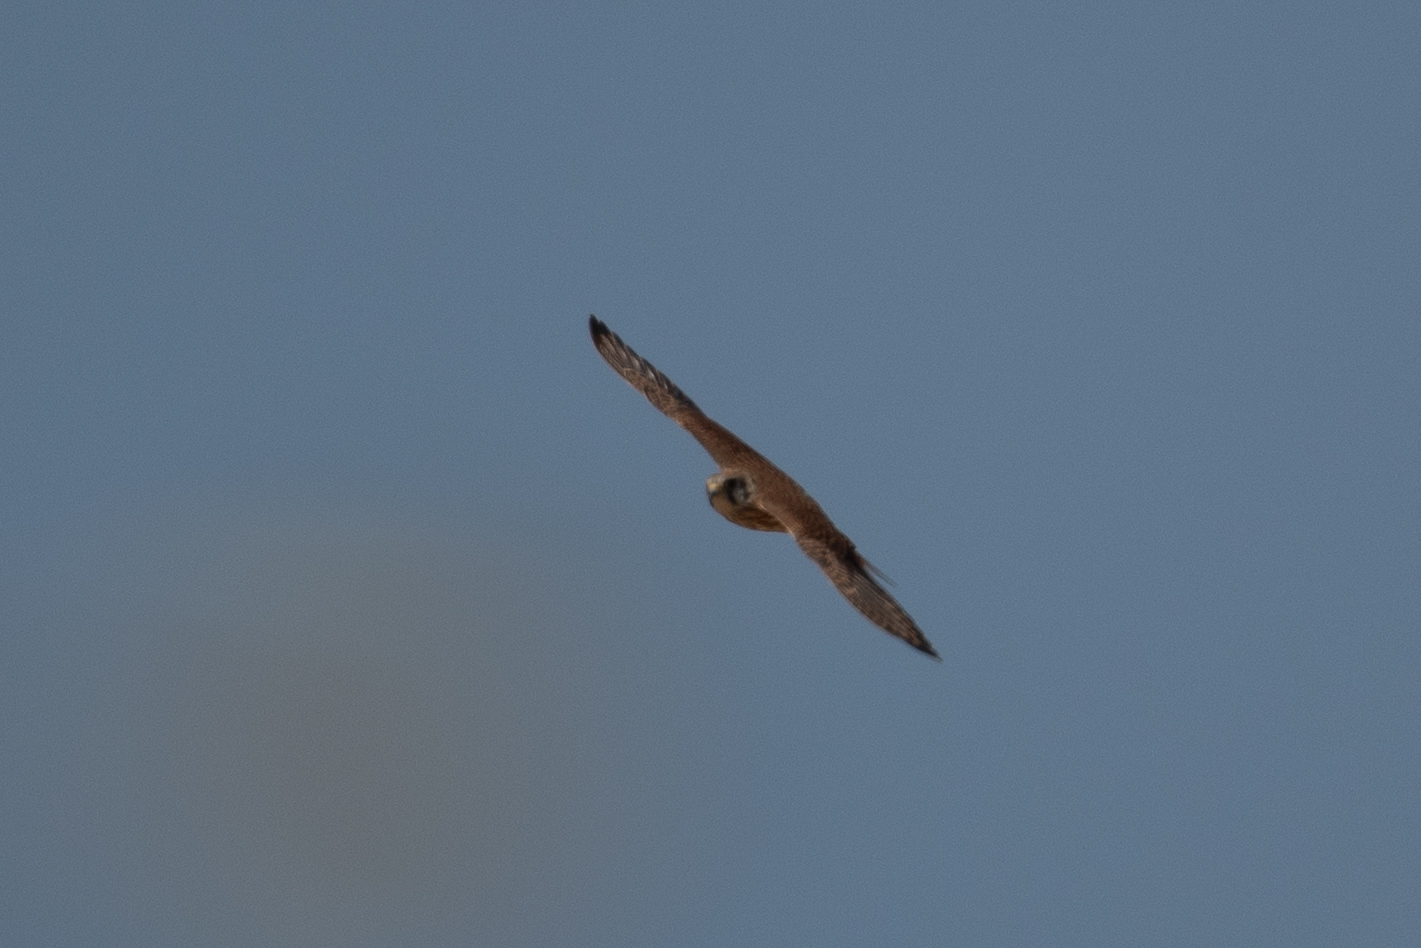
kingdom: Animalia
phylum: Chordata
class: Aves
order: Falconiformes
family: Falconidae
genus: Falco
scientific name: Falco sparverius
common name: American kestrel
